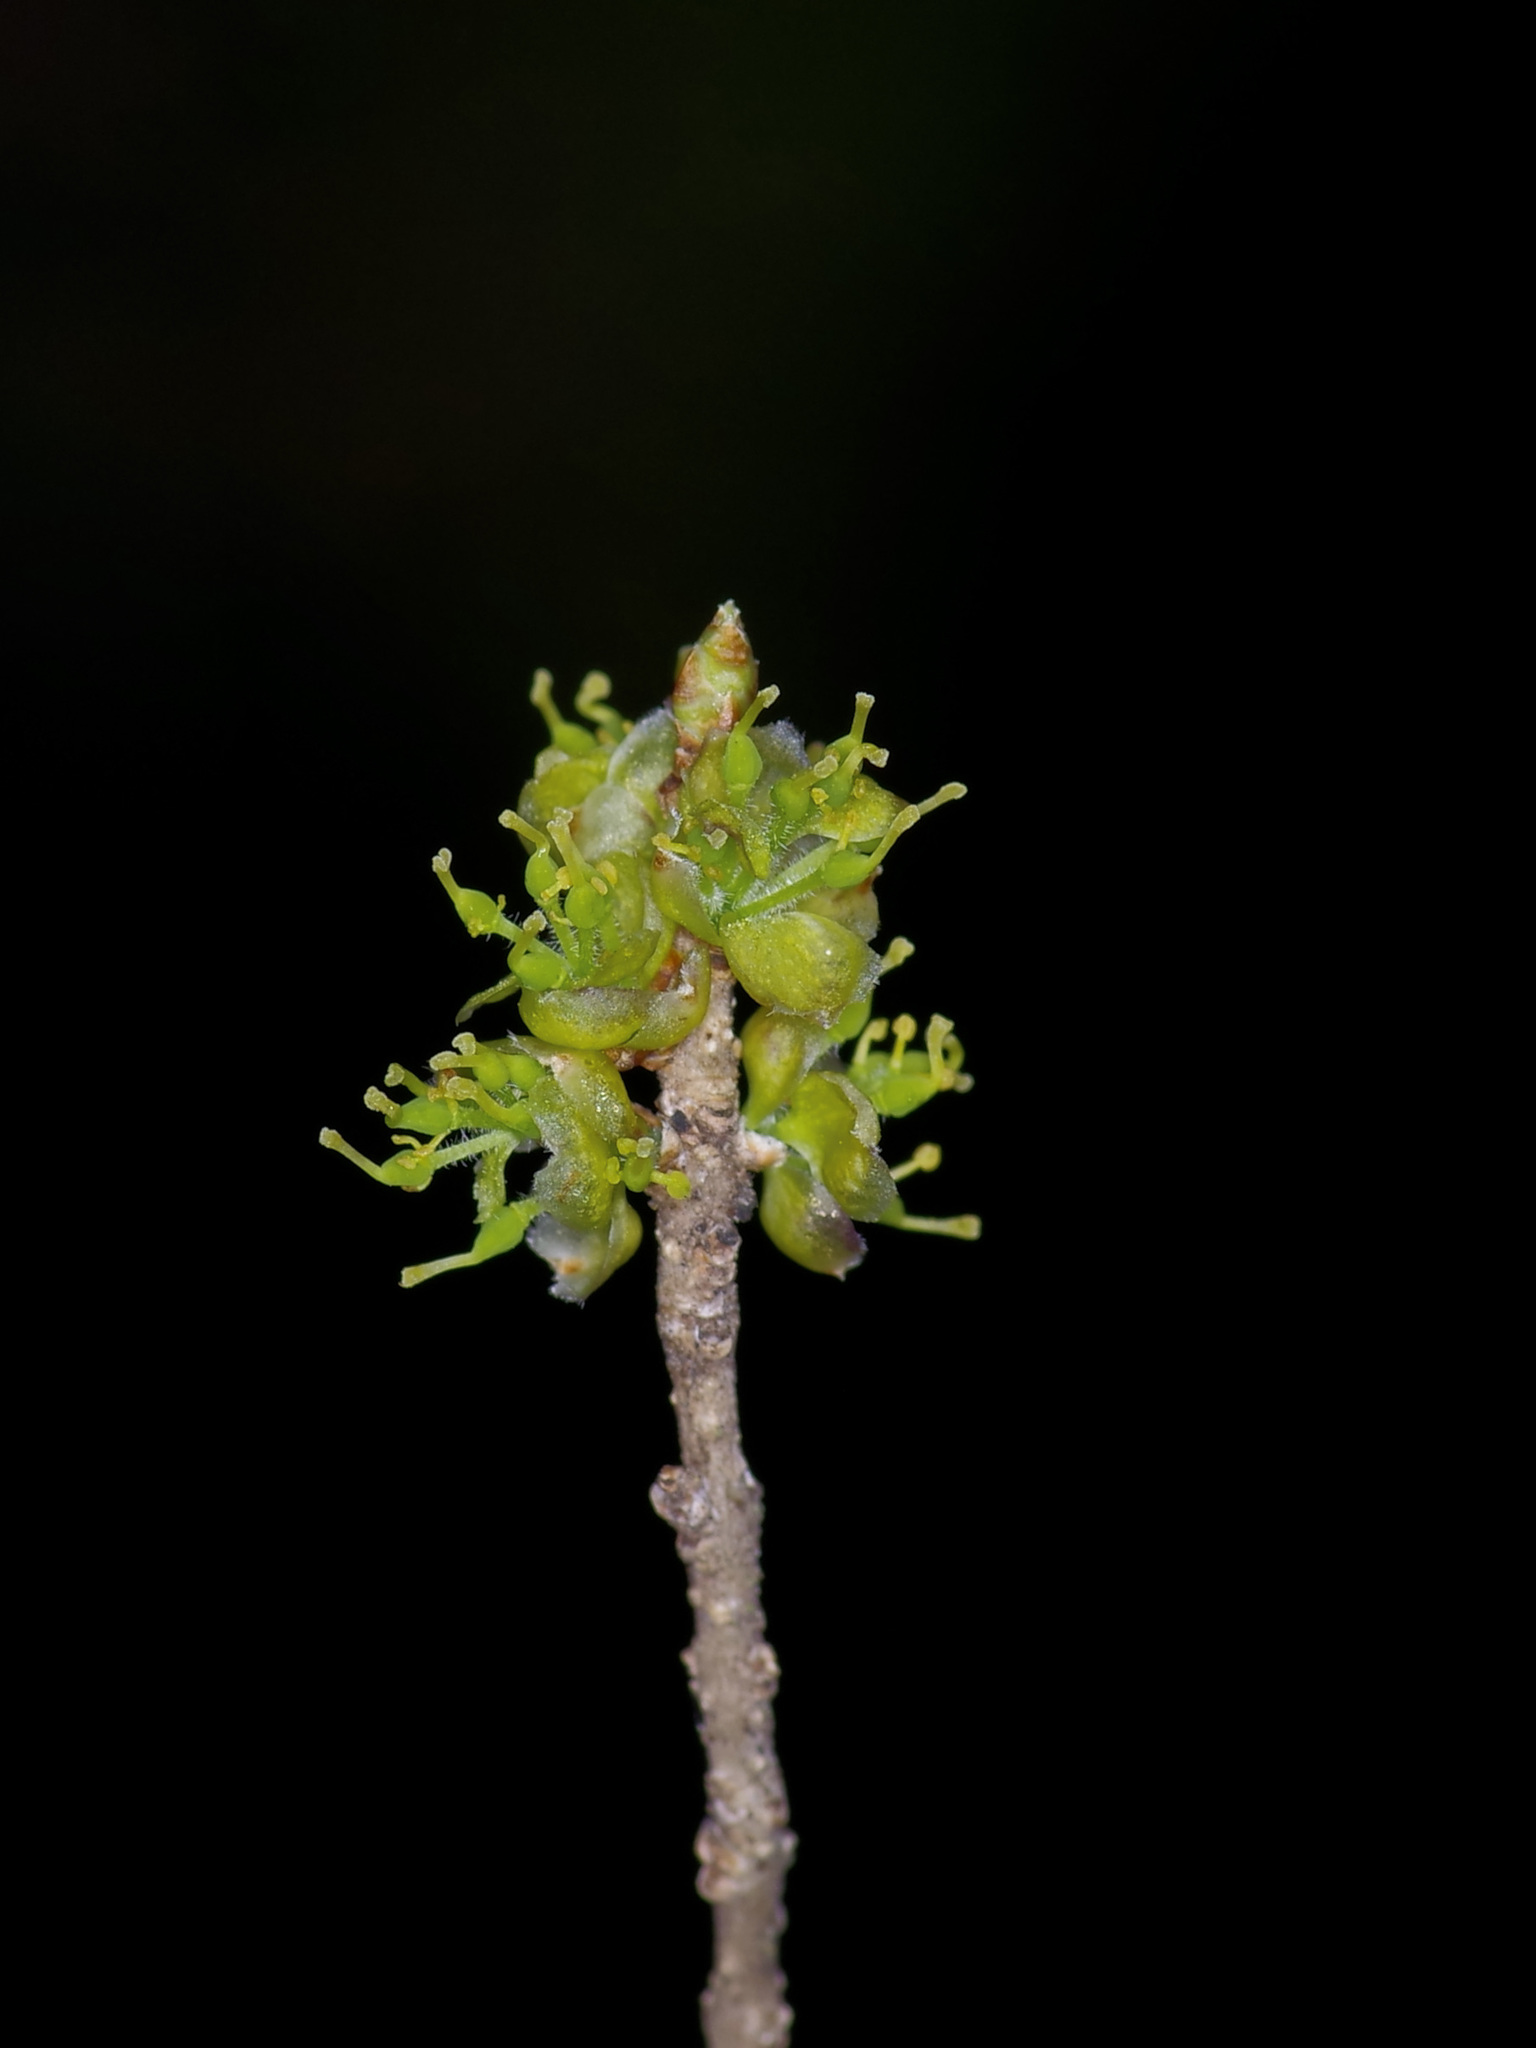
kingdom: Plantae
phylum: Tracheophyta
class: Magnoliopsida
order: Lamiales
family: Oleaceae
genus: Forestiera
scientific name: Forestiera pubescens
